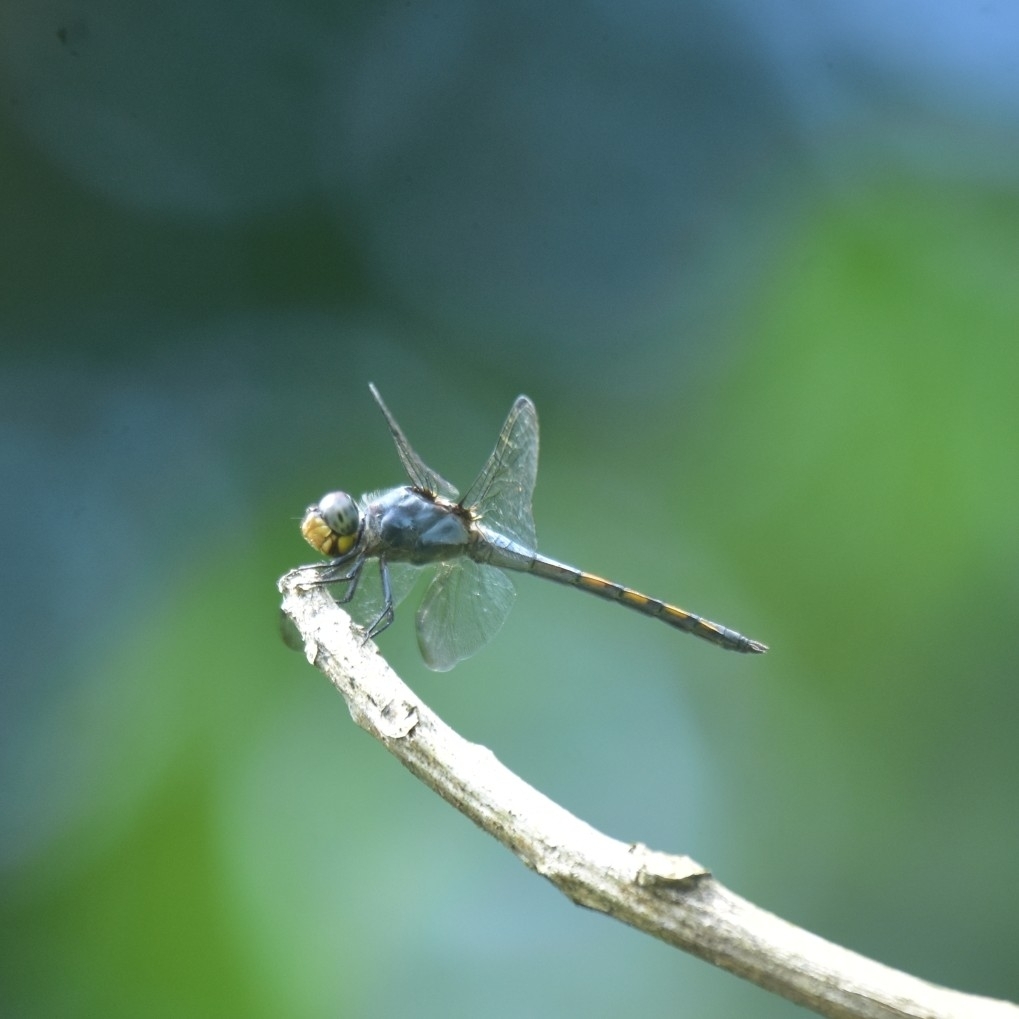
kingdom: Animalia
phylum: Arthropoda
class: Insecta
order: Odonata
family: Libellulidae
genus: Potamarcha
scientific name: Potamarcha congener
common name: Blue chaser
